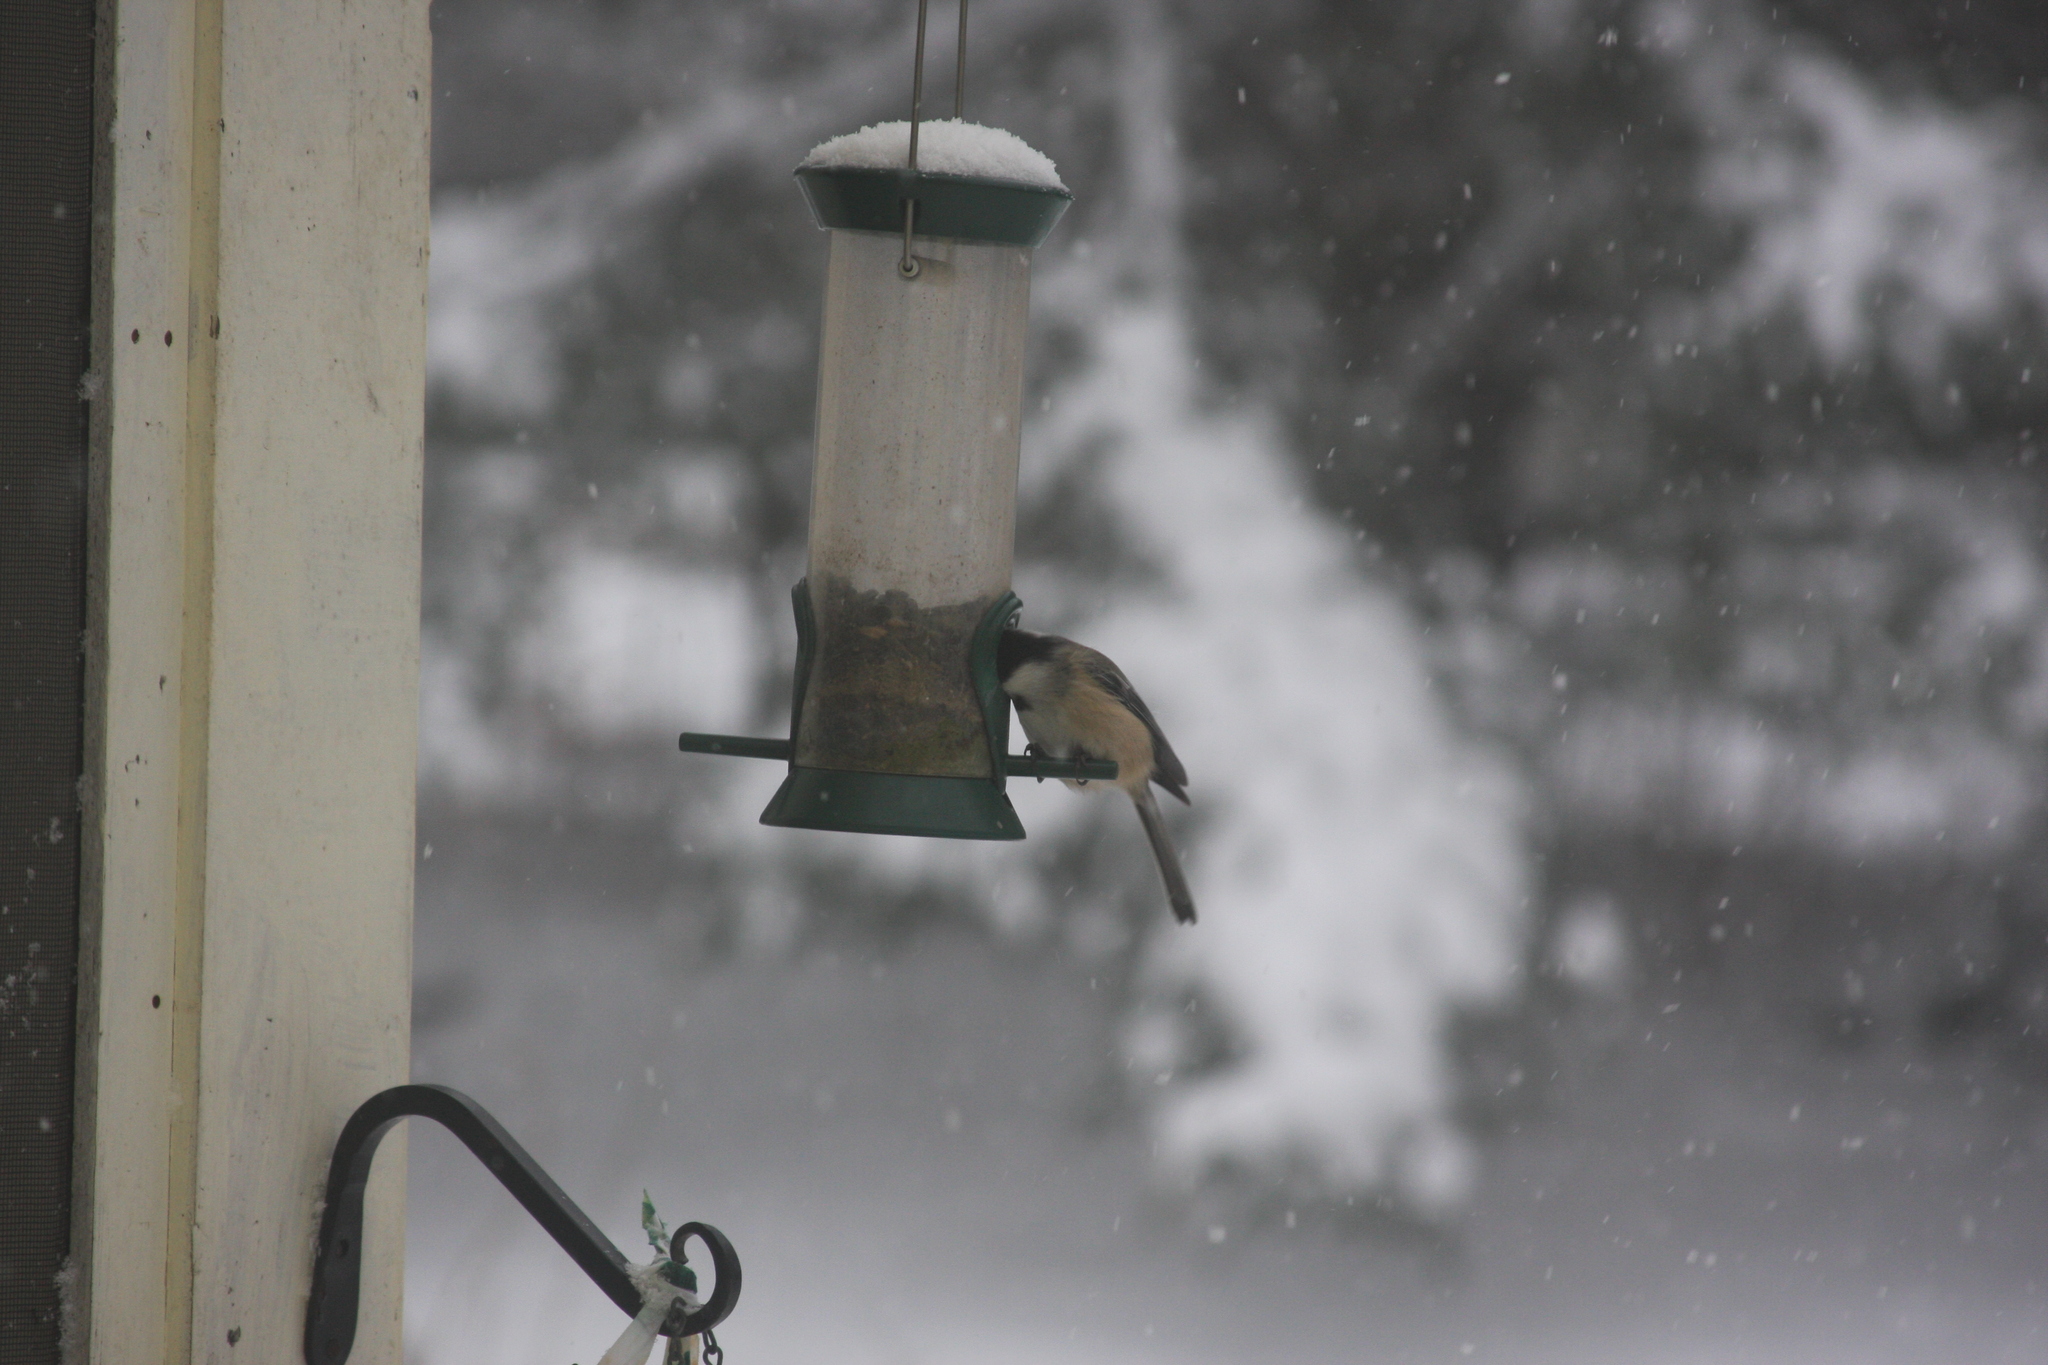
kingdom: Animalia
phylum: Chordata
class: Aves
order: Passeriformes
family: Paridae
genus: Poecile
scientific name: Poecile atricapillus
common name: Black-capped chickadee
